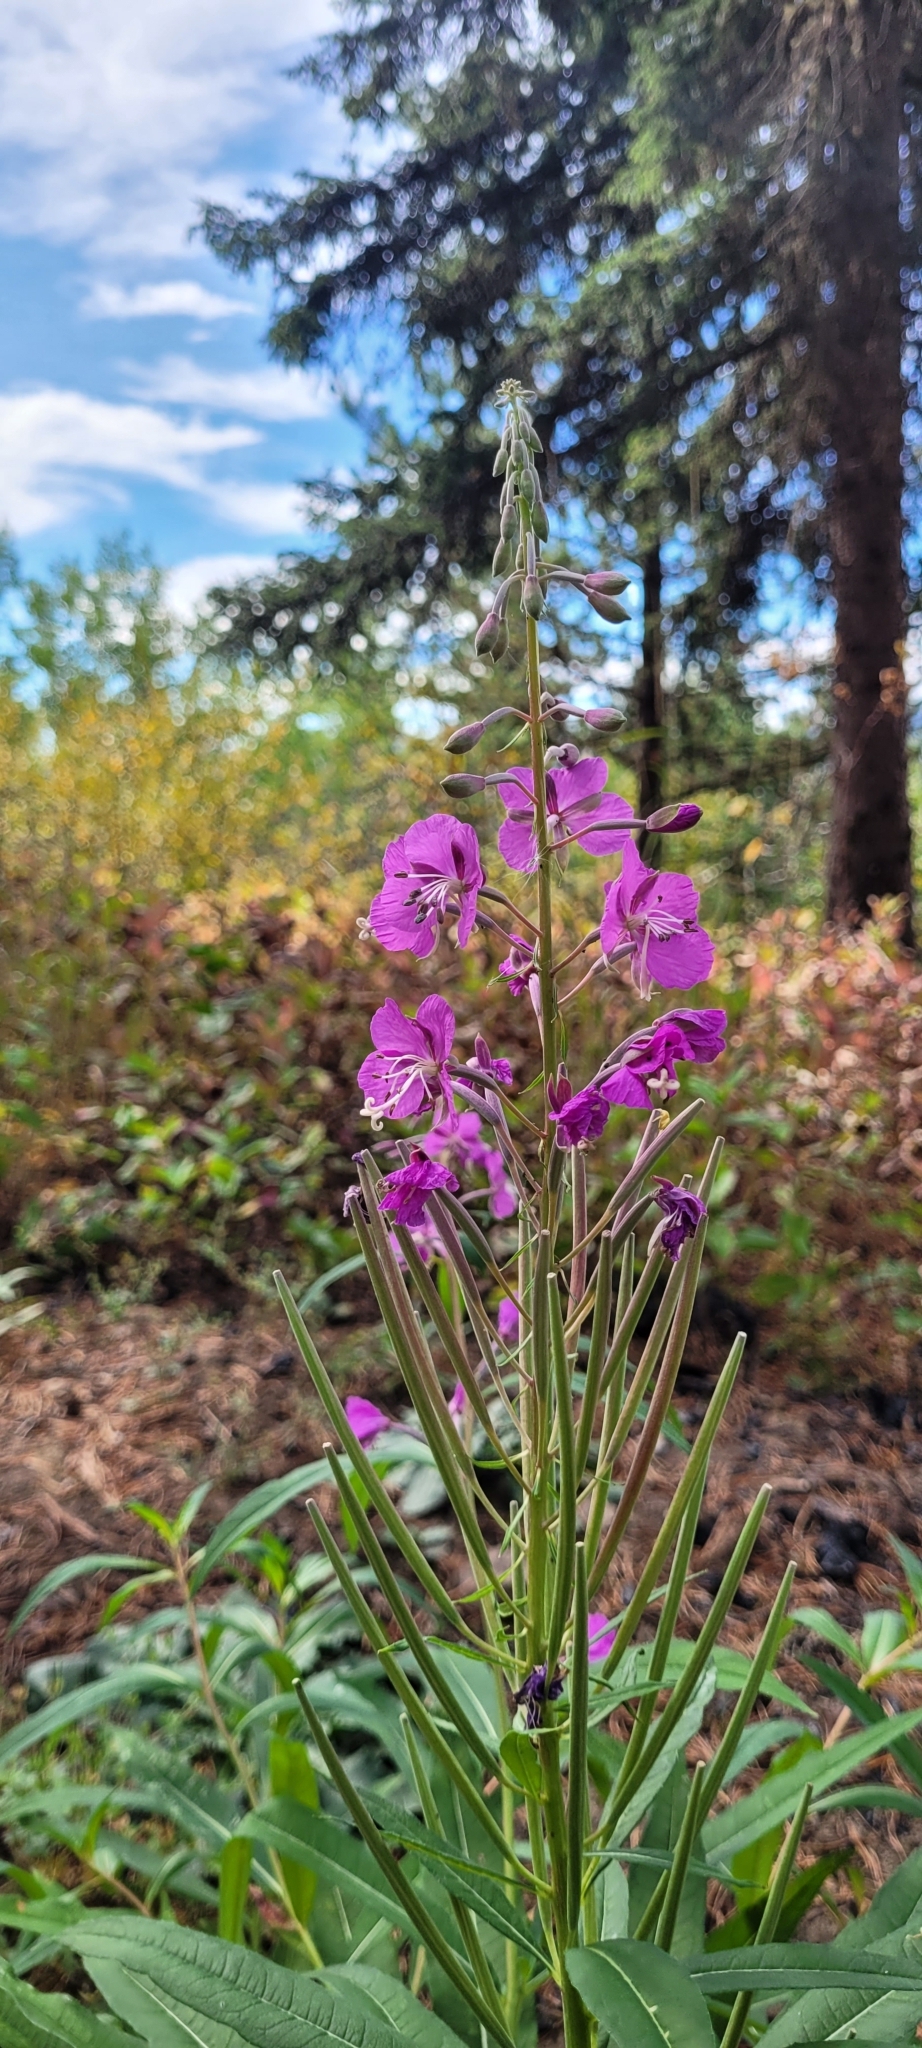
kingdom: Plantae
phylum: Tracheophyta
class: Magnoliopsida
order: Myrtales
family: Onagraceae
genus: Chamaenerion
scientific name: Chamaenerion angustifolium
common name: Fireweed
